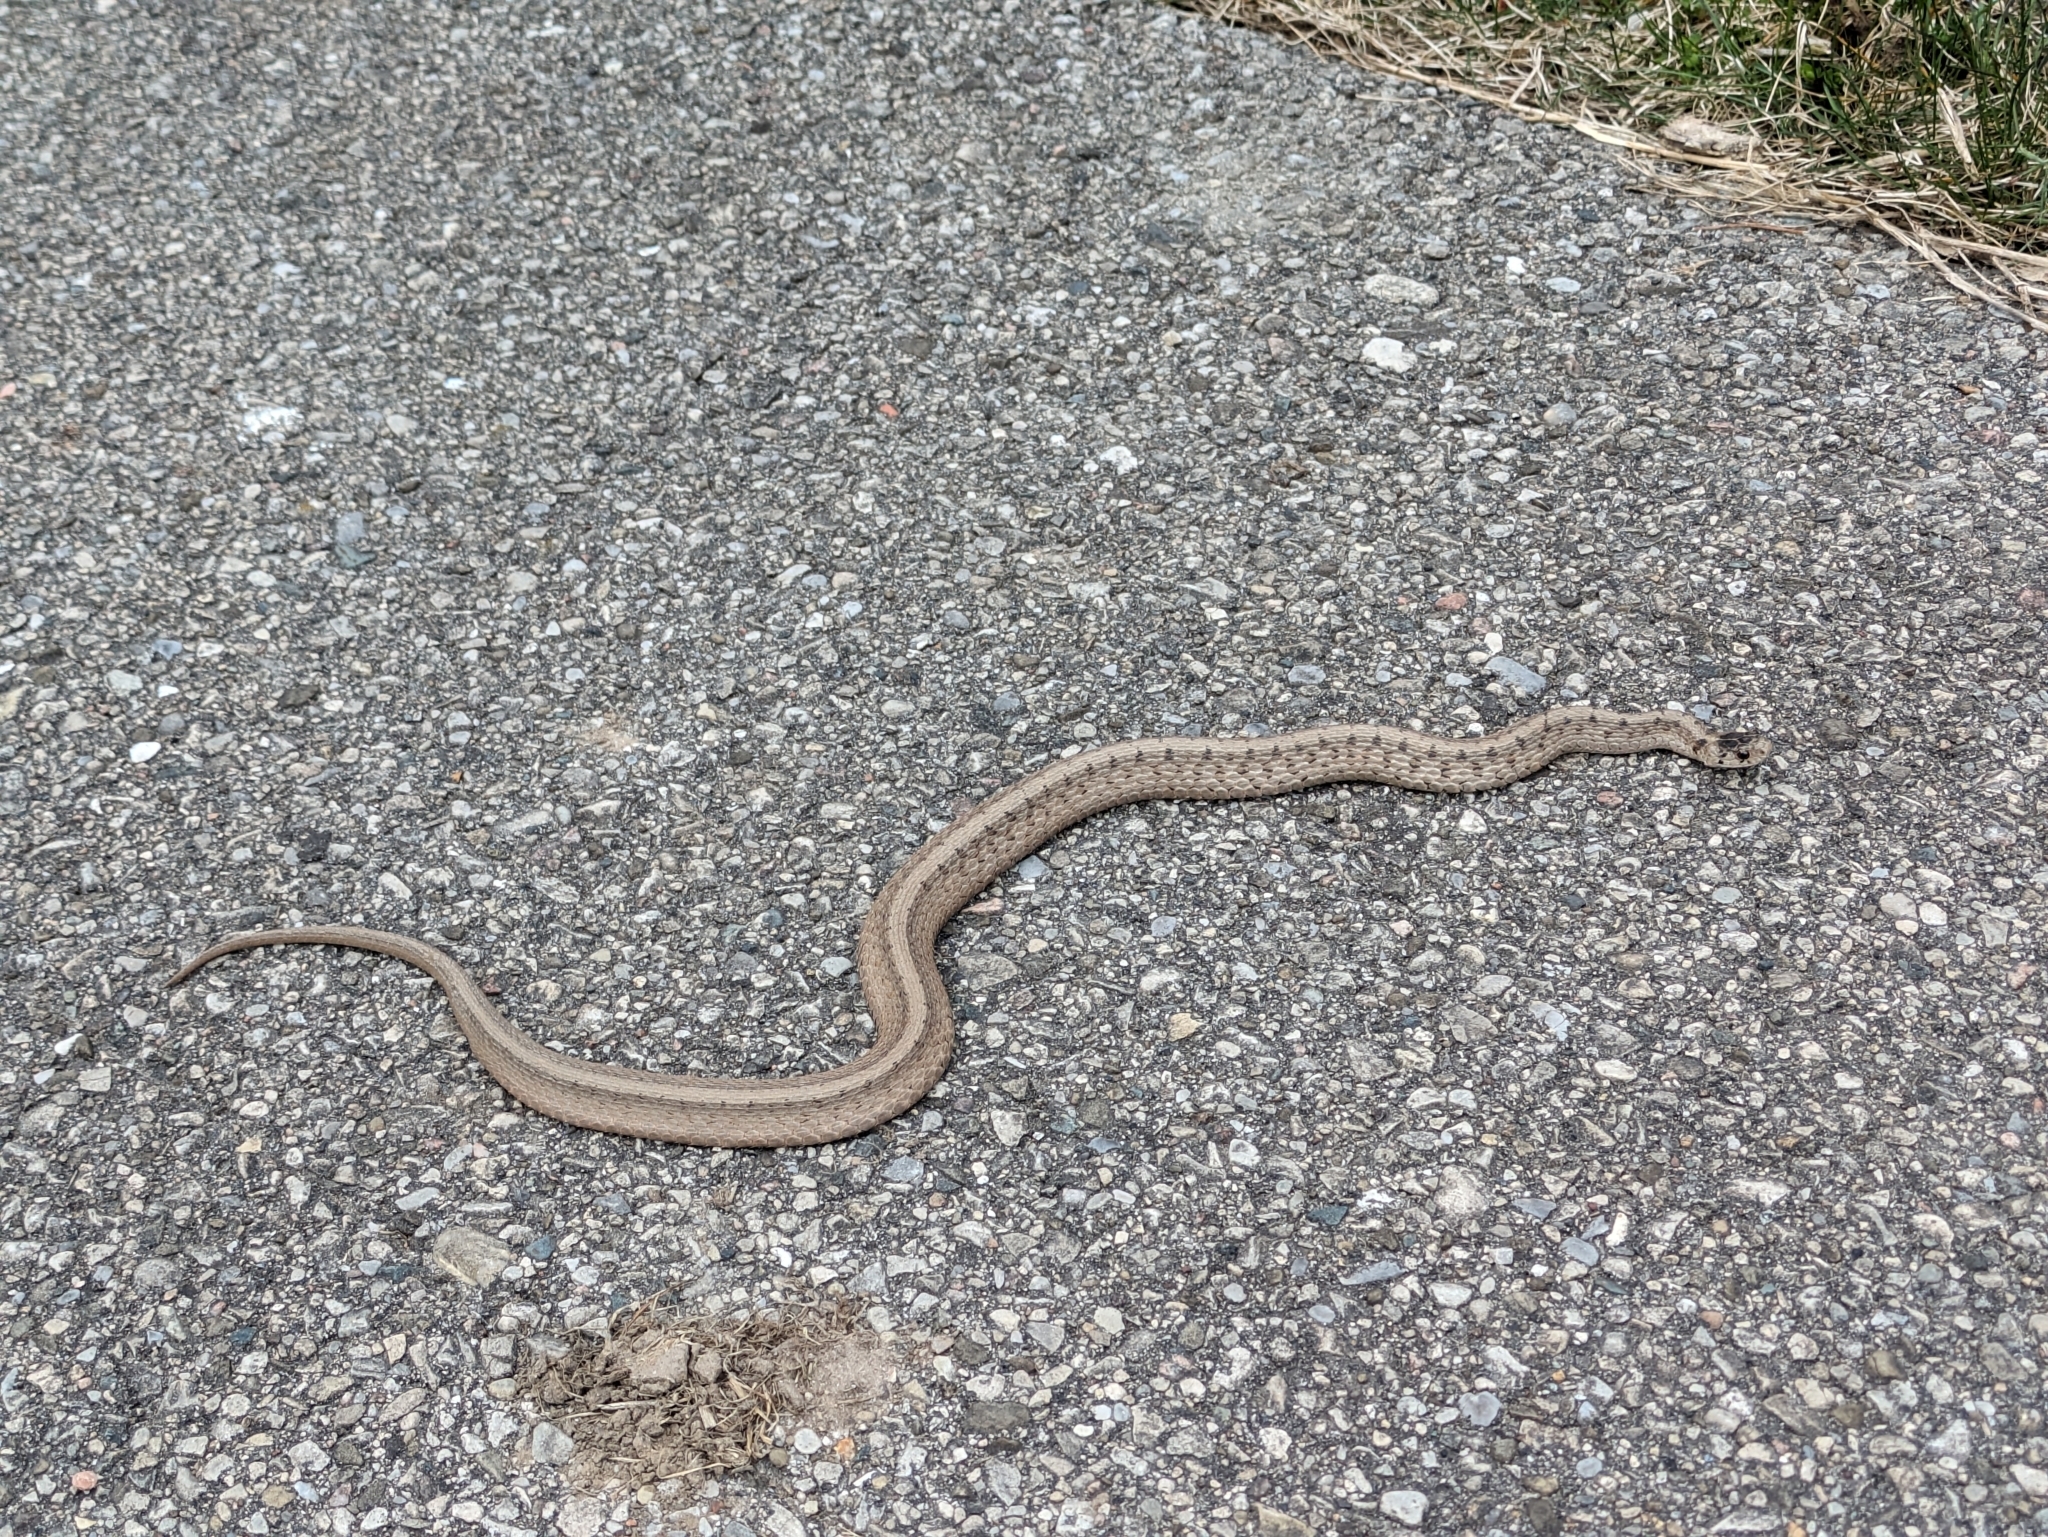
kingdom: Animalia
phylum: Chordata
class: Squamata
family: Colubridae
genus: Storeria
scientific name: Storeria dekayi
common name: (dekay’s) brown snake
